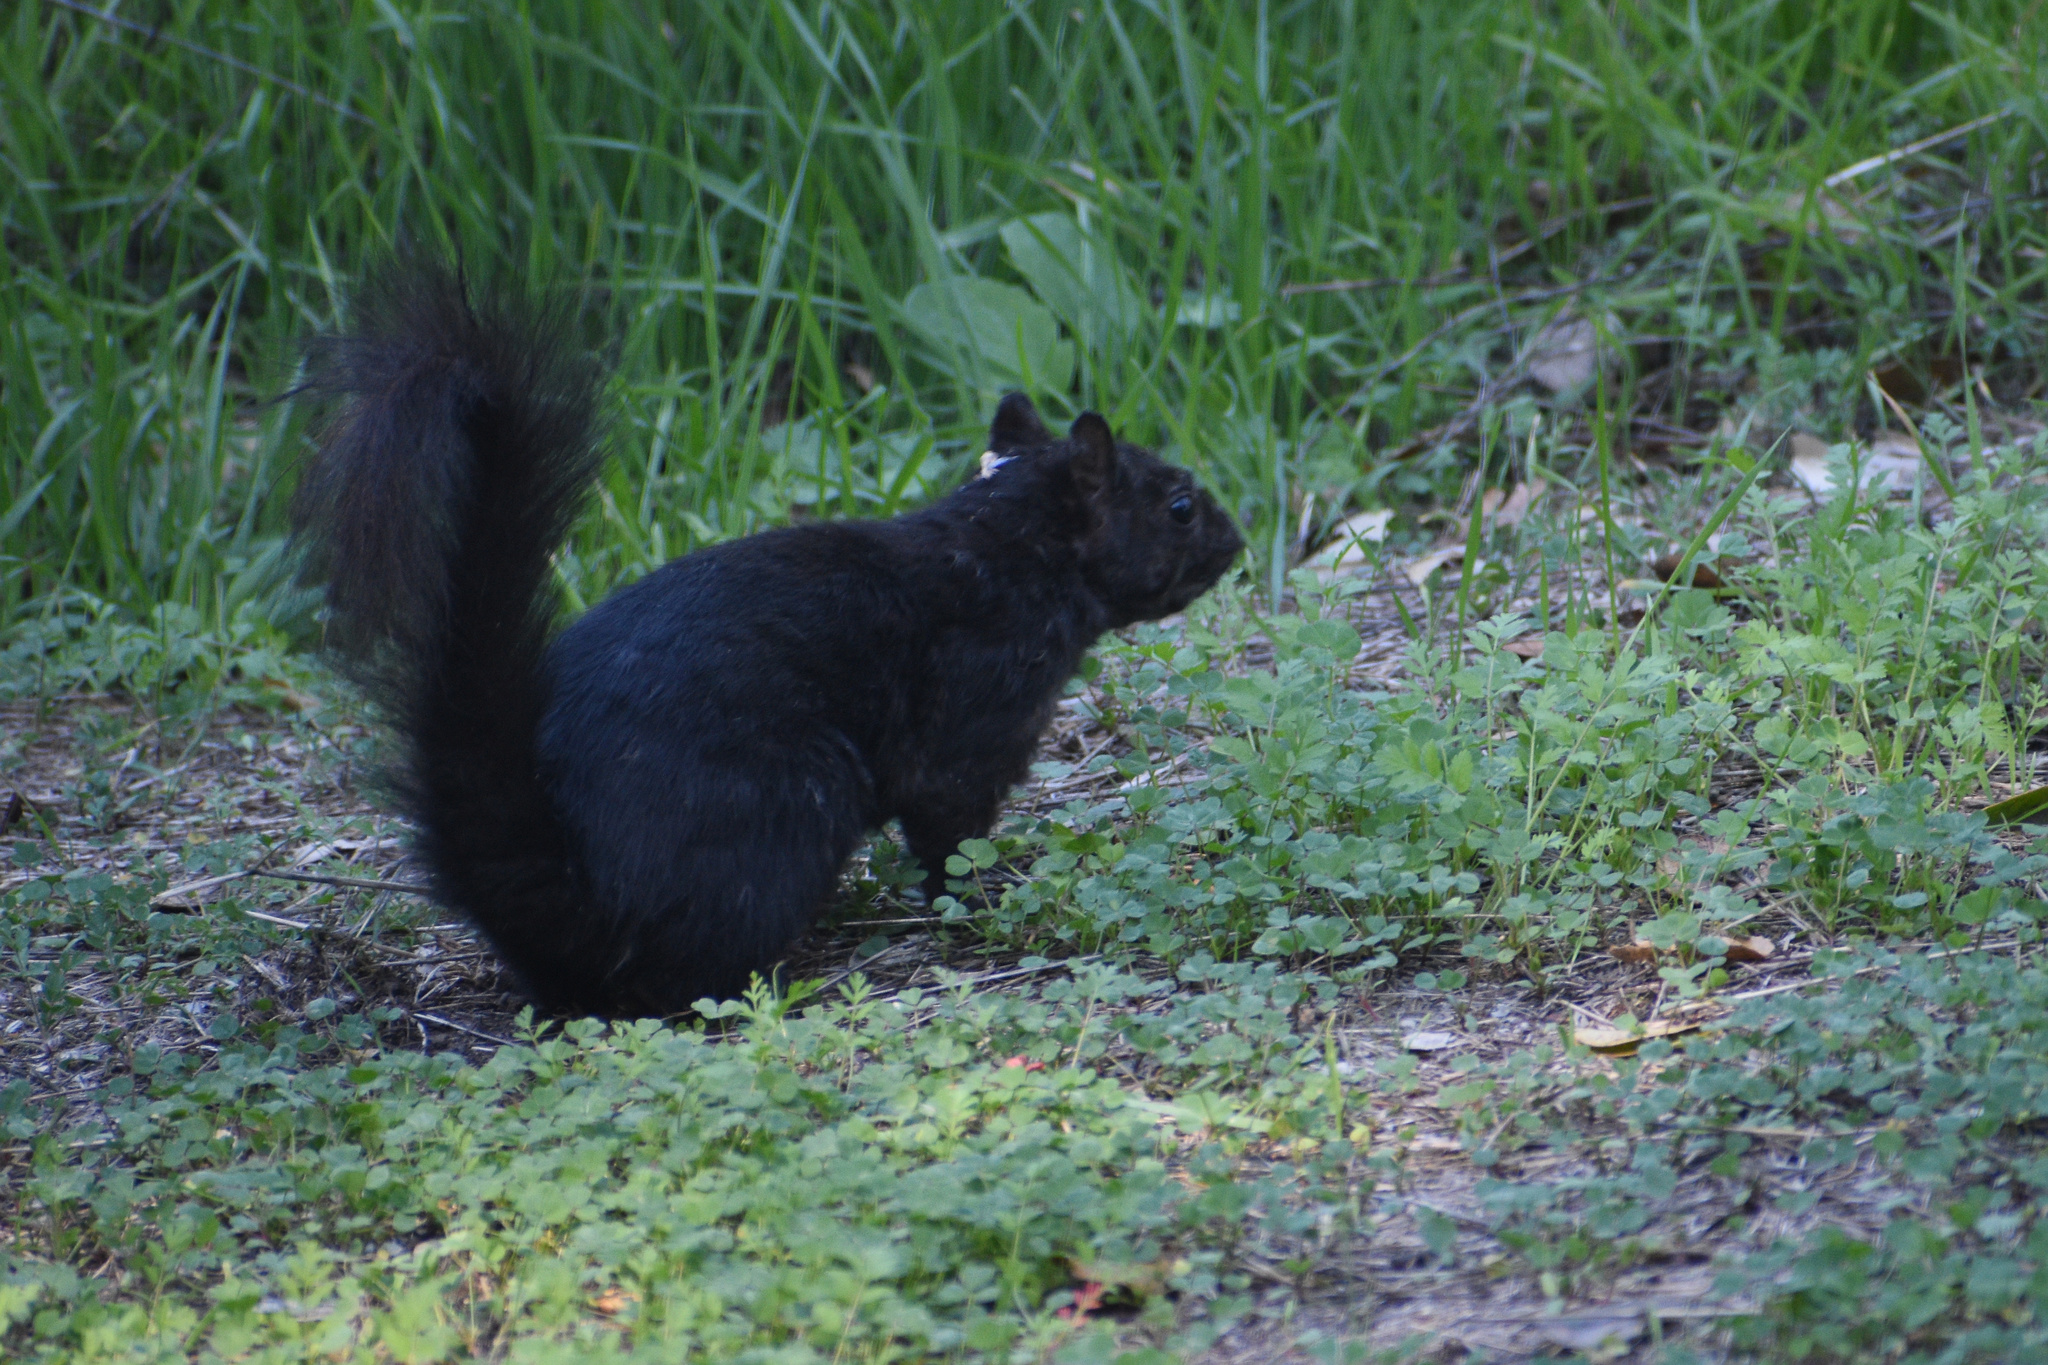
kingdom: Animalia
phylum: Chordata
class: Mammalia
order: Rodentia
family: Sciuridae
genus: Sciurus
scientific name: Sciurus carolinensis
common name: Eastern gray squirrel
